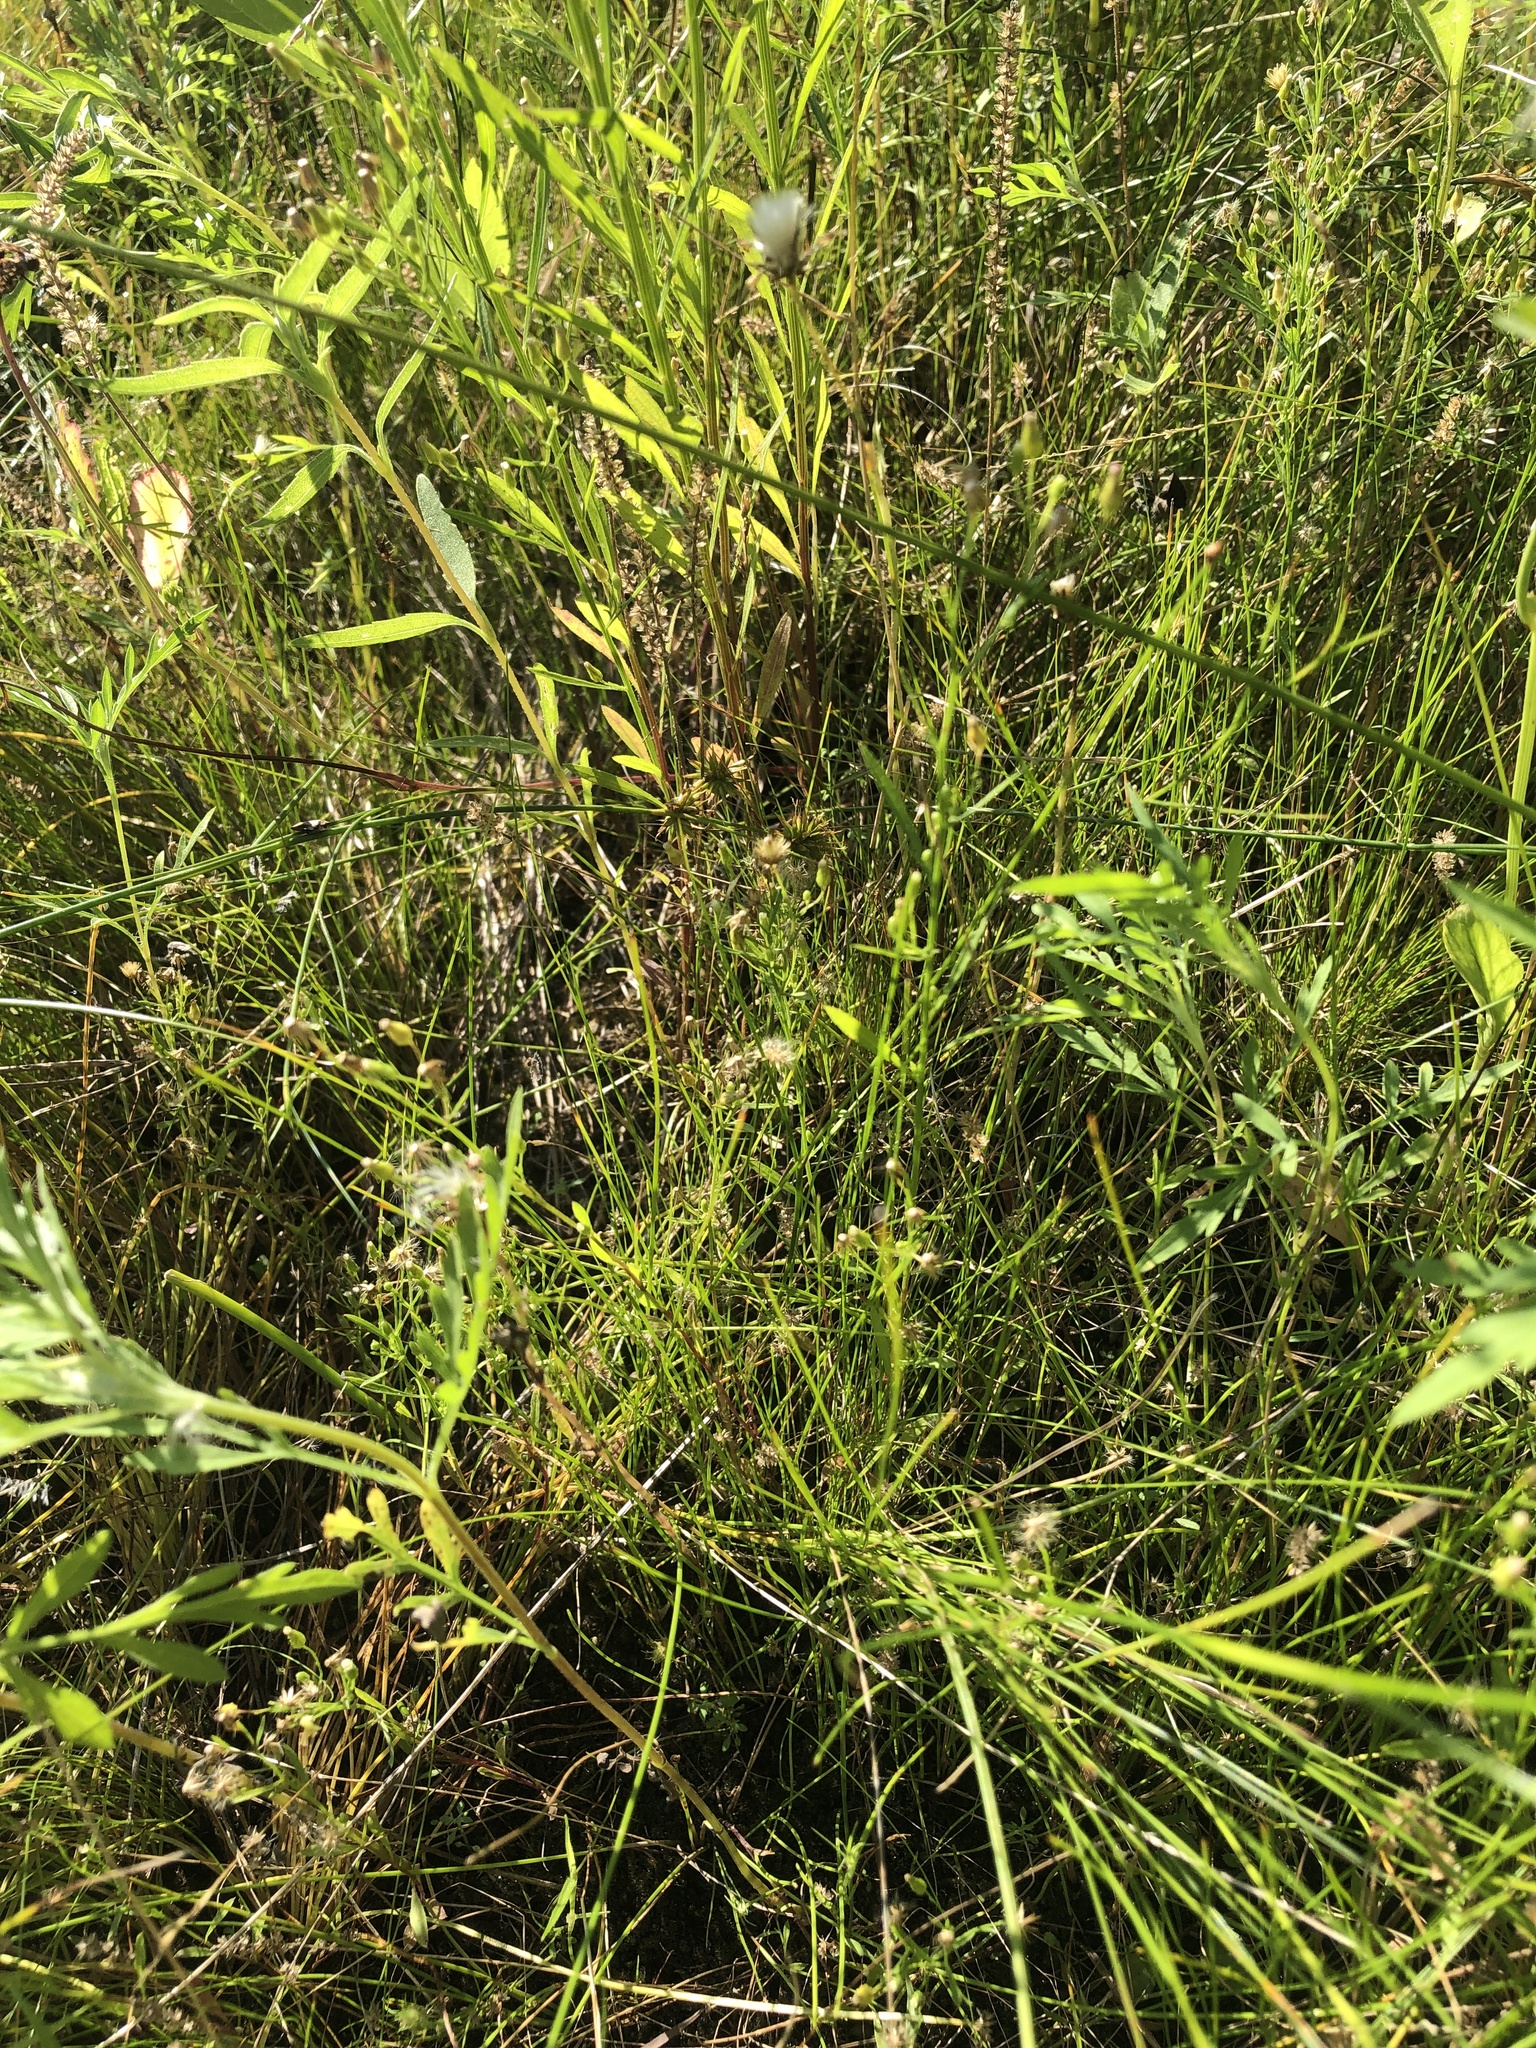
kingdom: Plantae
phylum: Tracheophyta
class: Magnoliopsida
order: Asterales
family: Asteraceae
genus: Erigeron
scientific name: Erigeron canadensis
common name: Canadian fleabane
